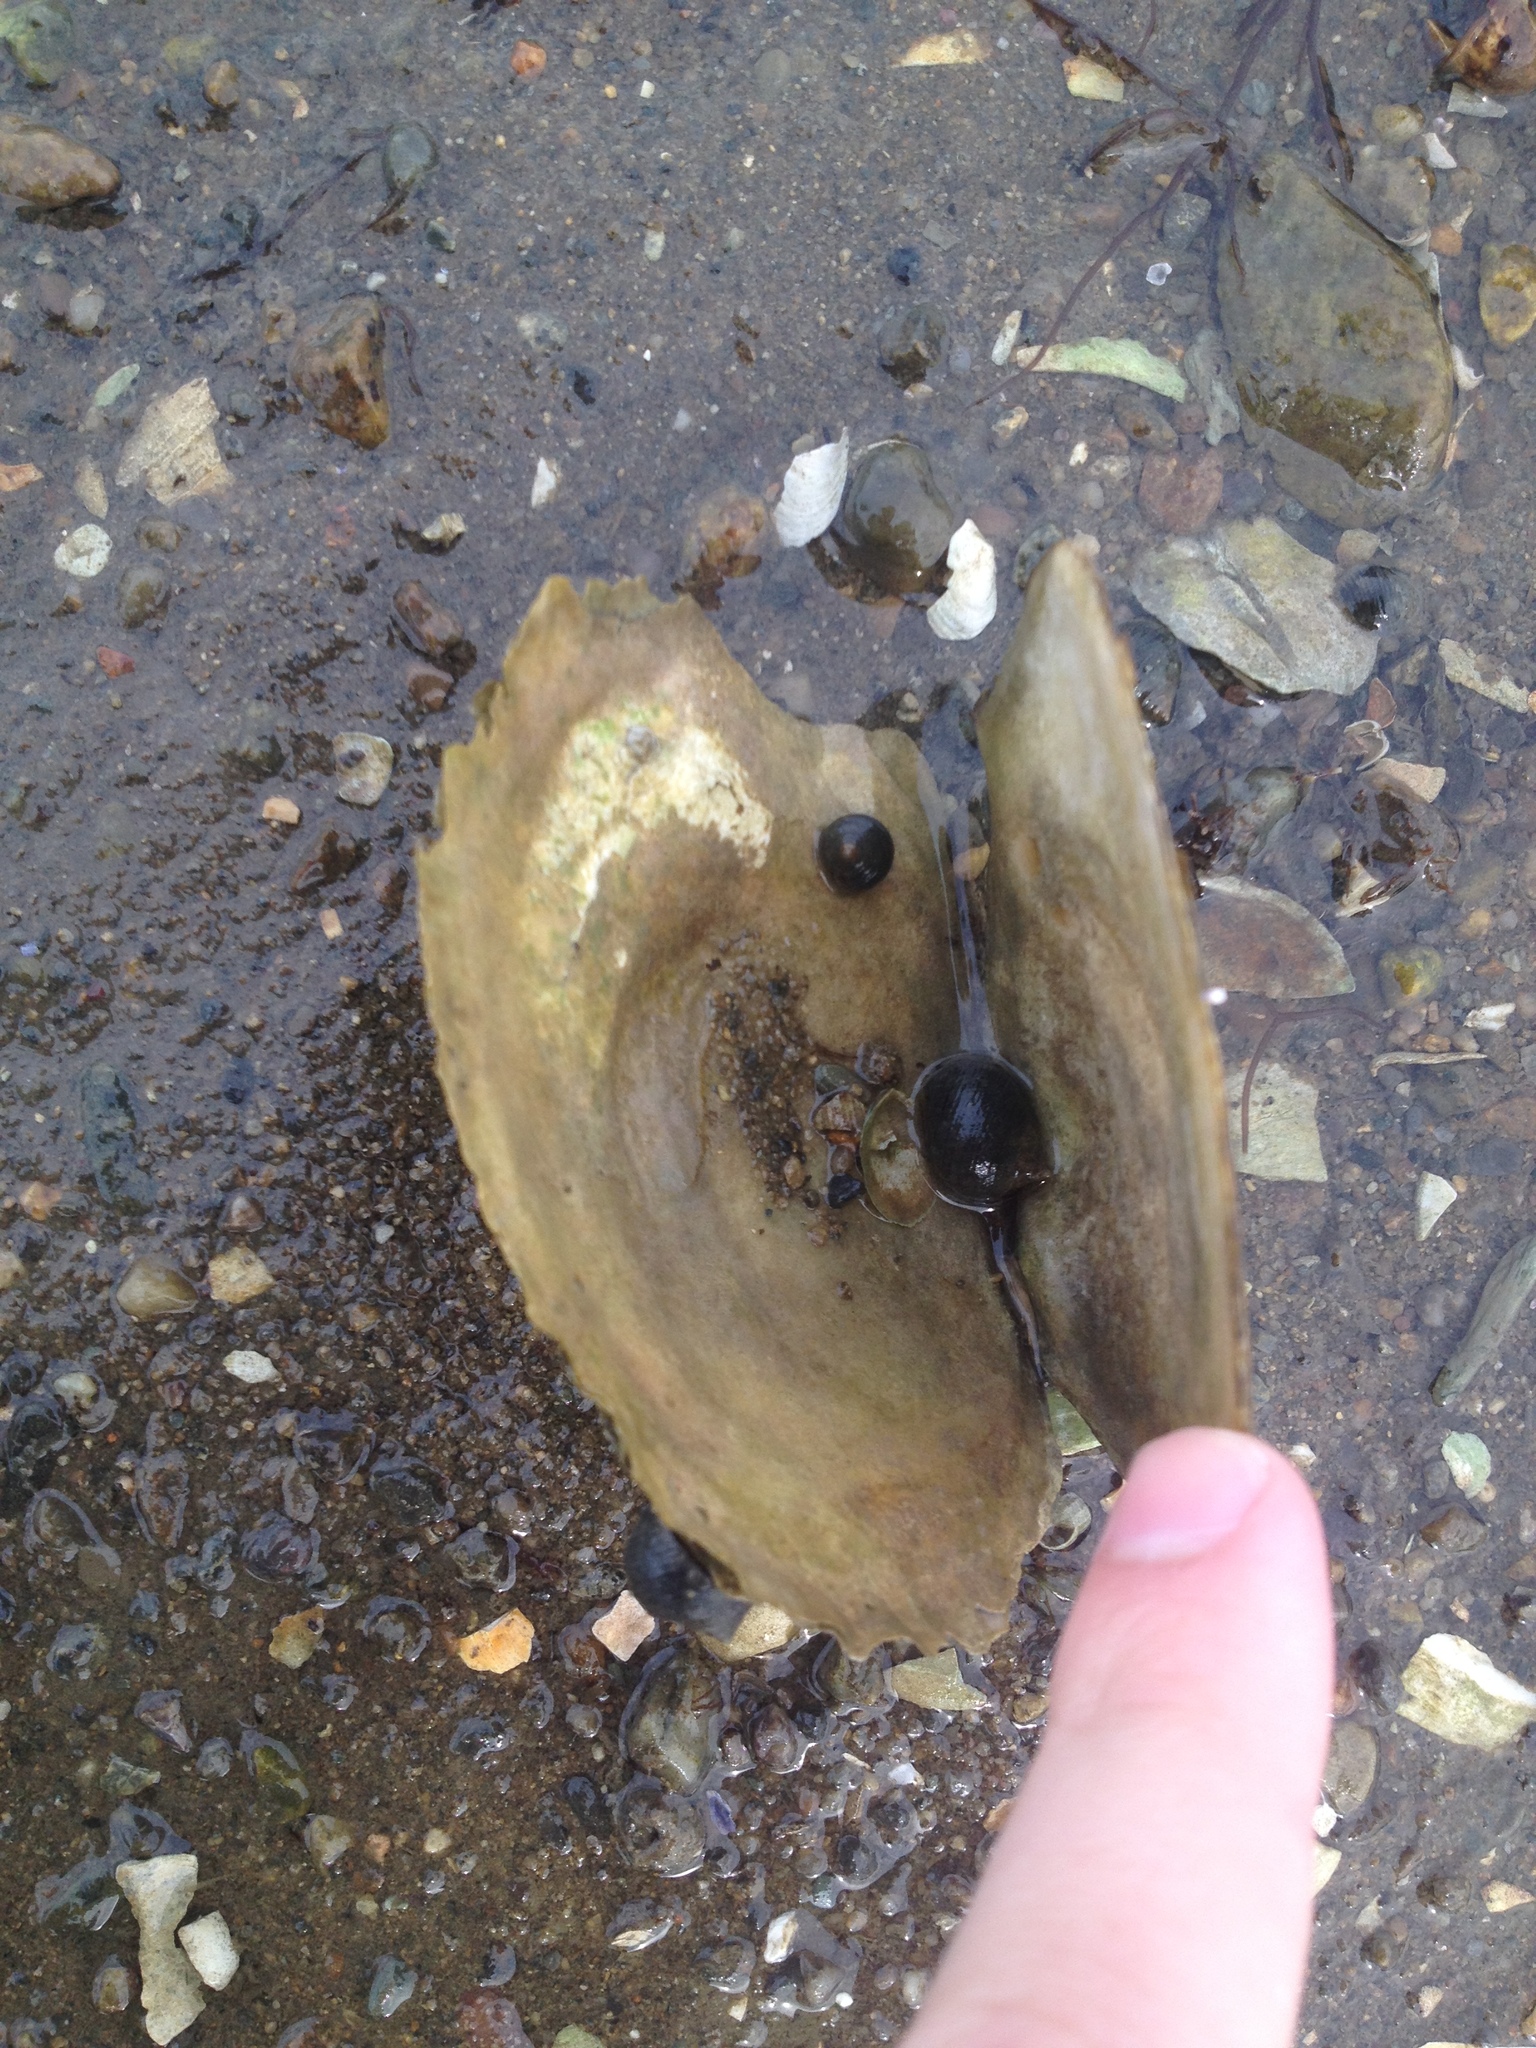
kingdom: Animalia
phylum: Mollusca
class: Bivalvia
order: Ostreida
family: Ostreidae
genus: Ostrea
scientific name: Ostrea edulis
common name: Flat oyster
